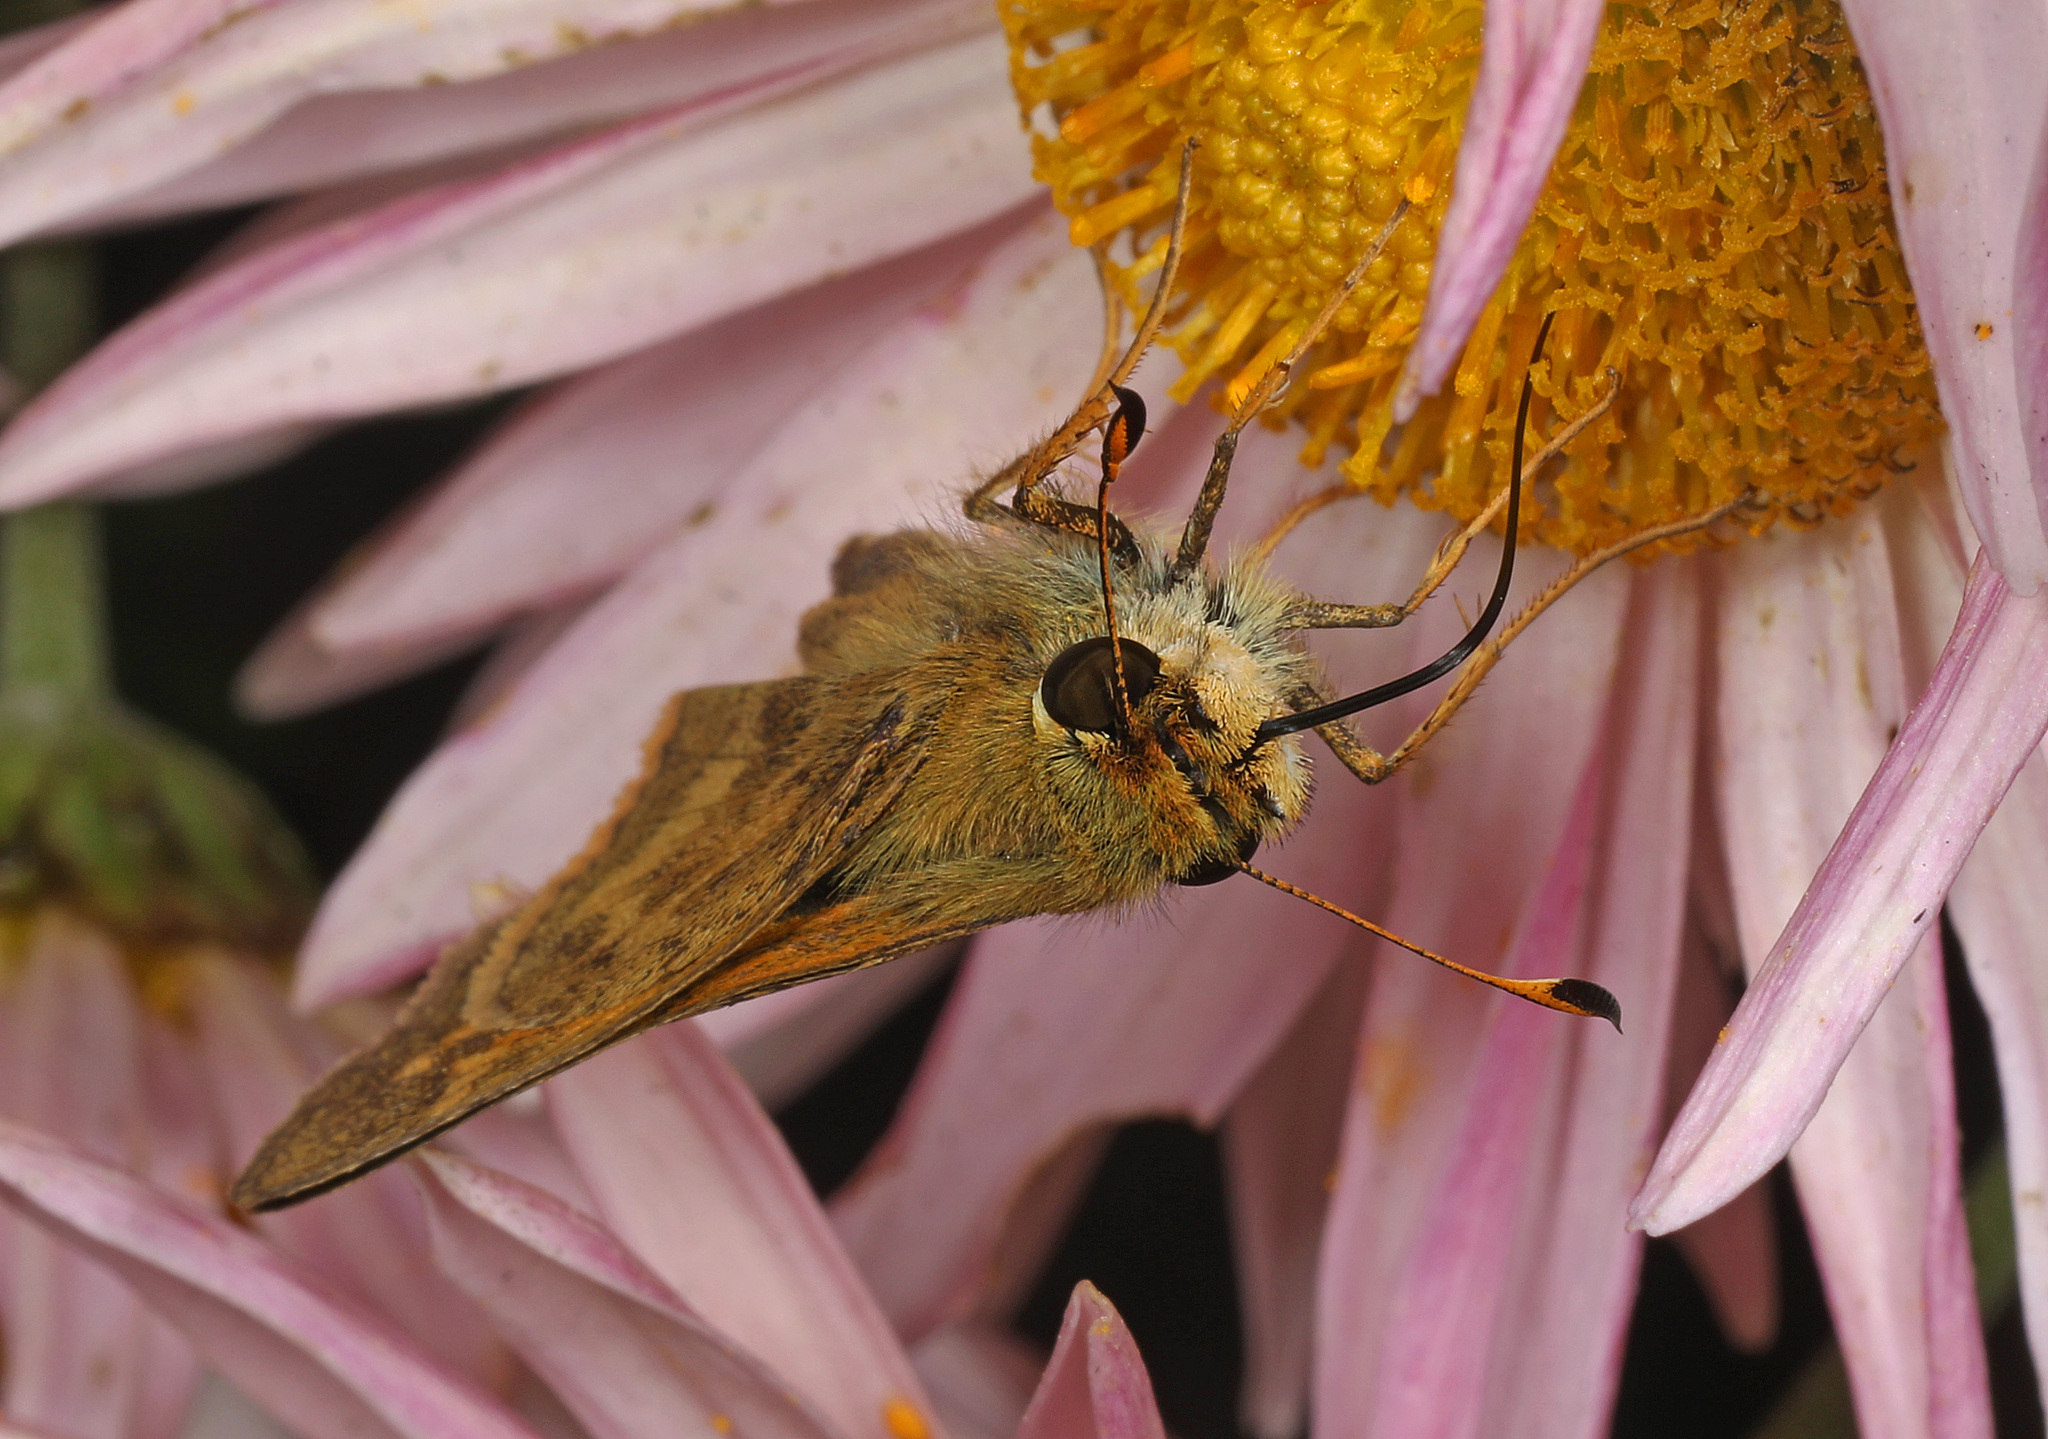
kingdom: Animalia
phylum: Arthropoda
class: Insecta
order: Lepidoptera
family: Hesperiidae
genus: Atalopedes
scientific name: Atalopedes
